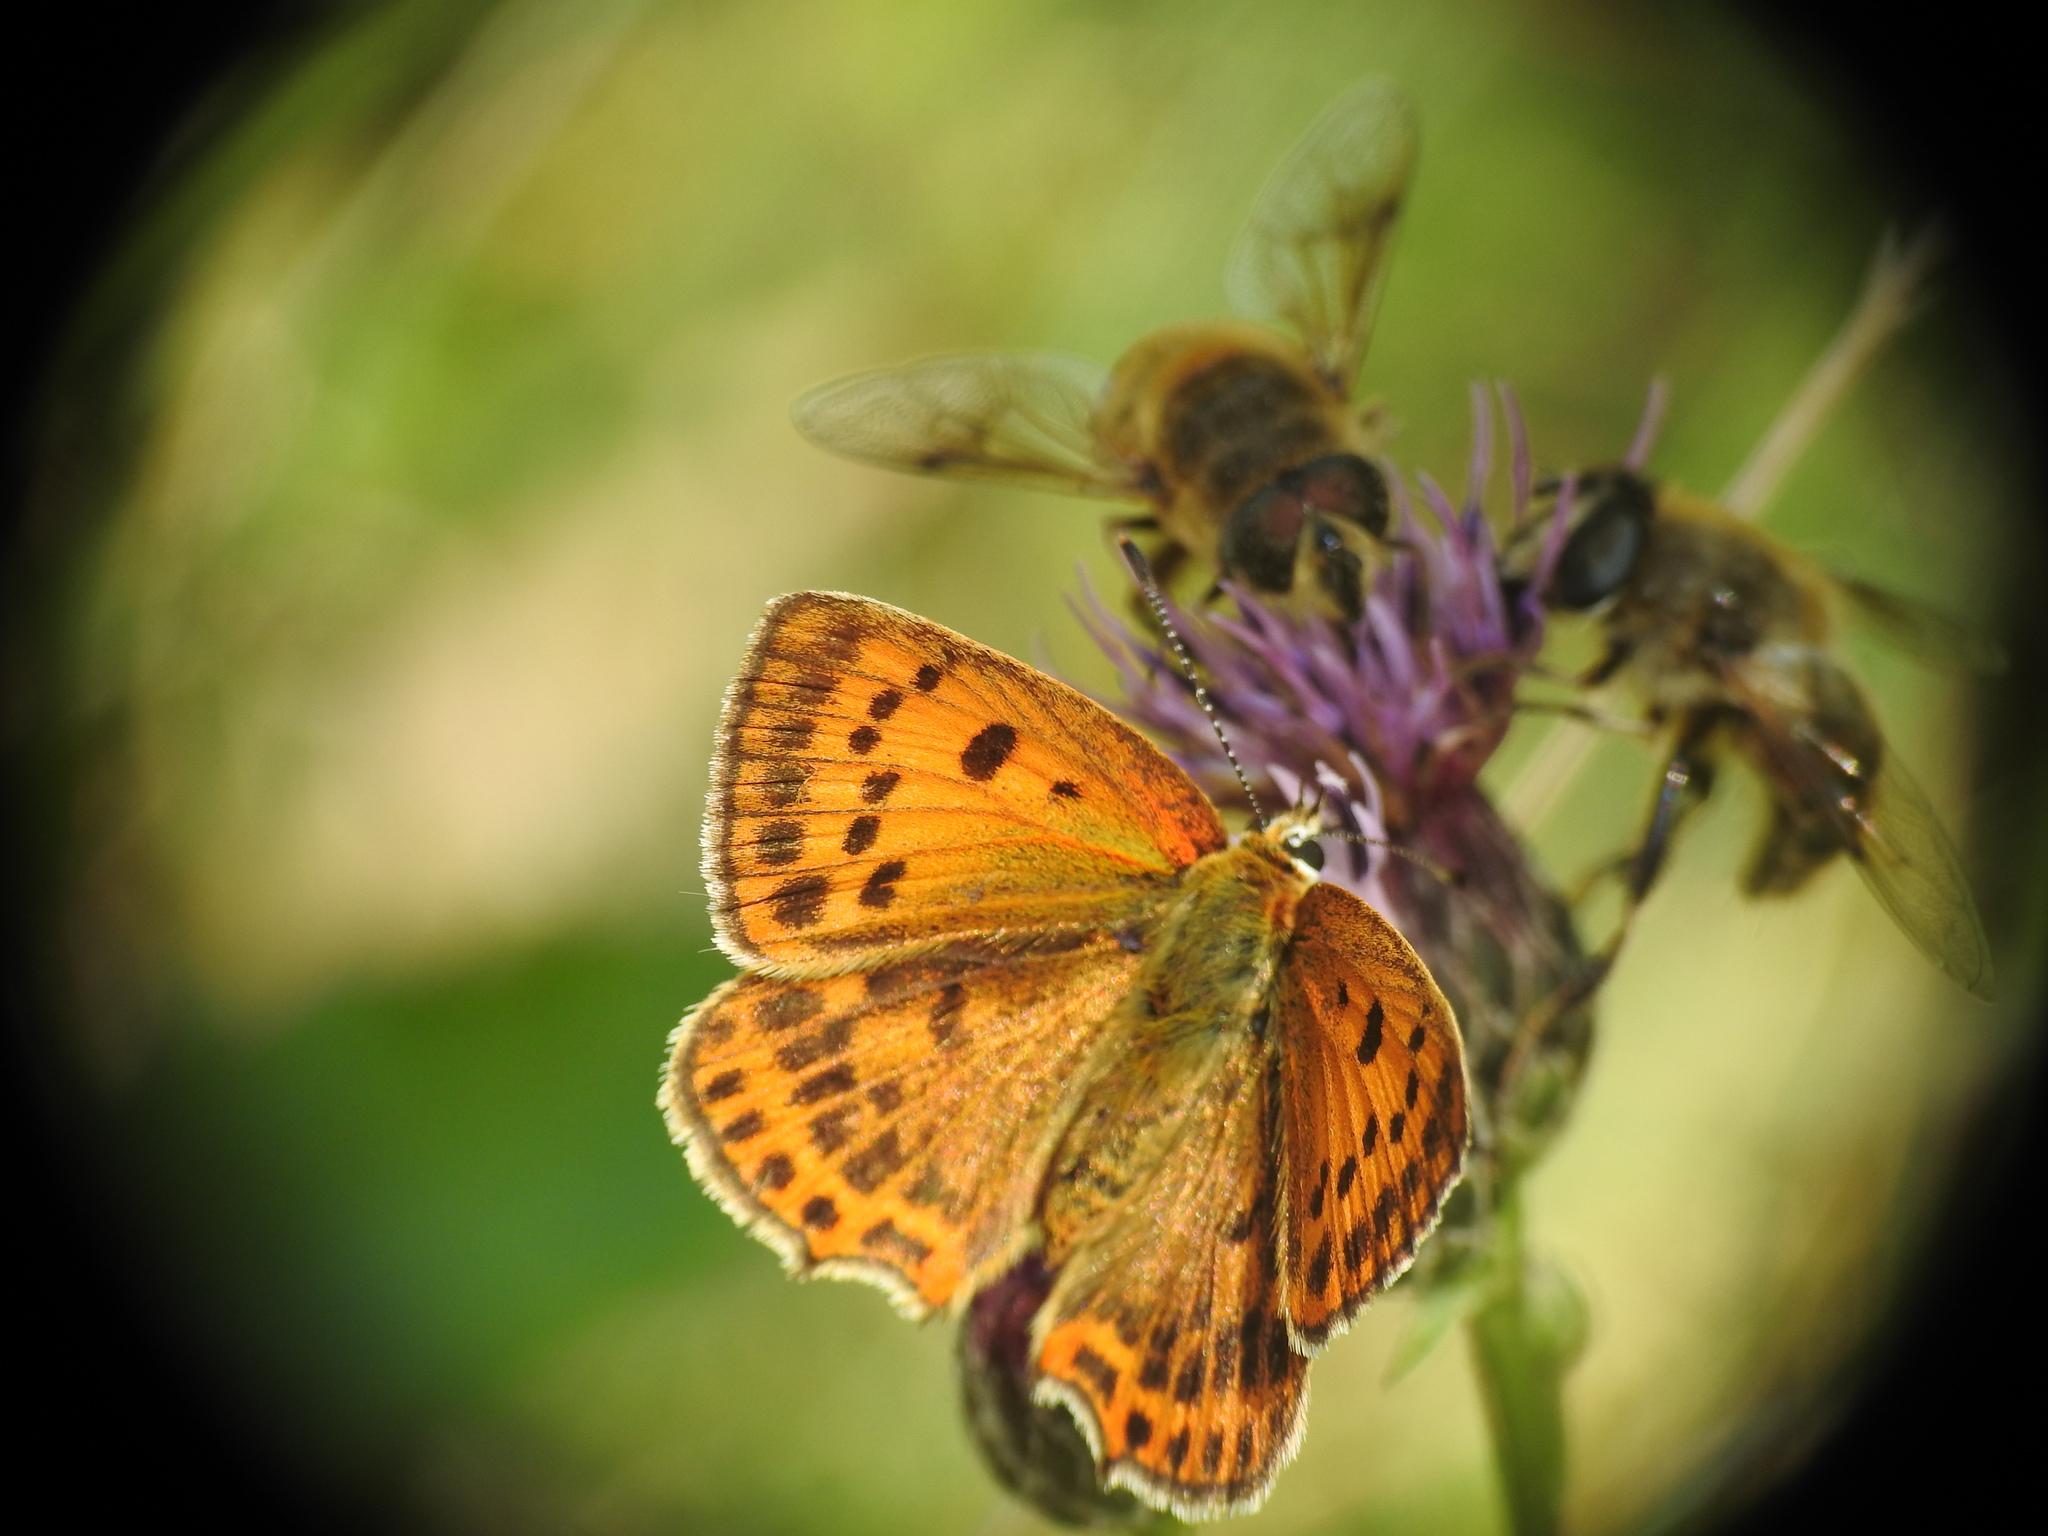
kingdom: Animalia
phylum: Arthropoda
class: Insecta
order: Lepidoptera
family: Lycaenidae
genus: Lycaena
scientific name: Lycaena virgaureae
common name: Scarce copper
